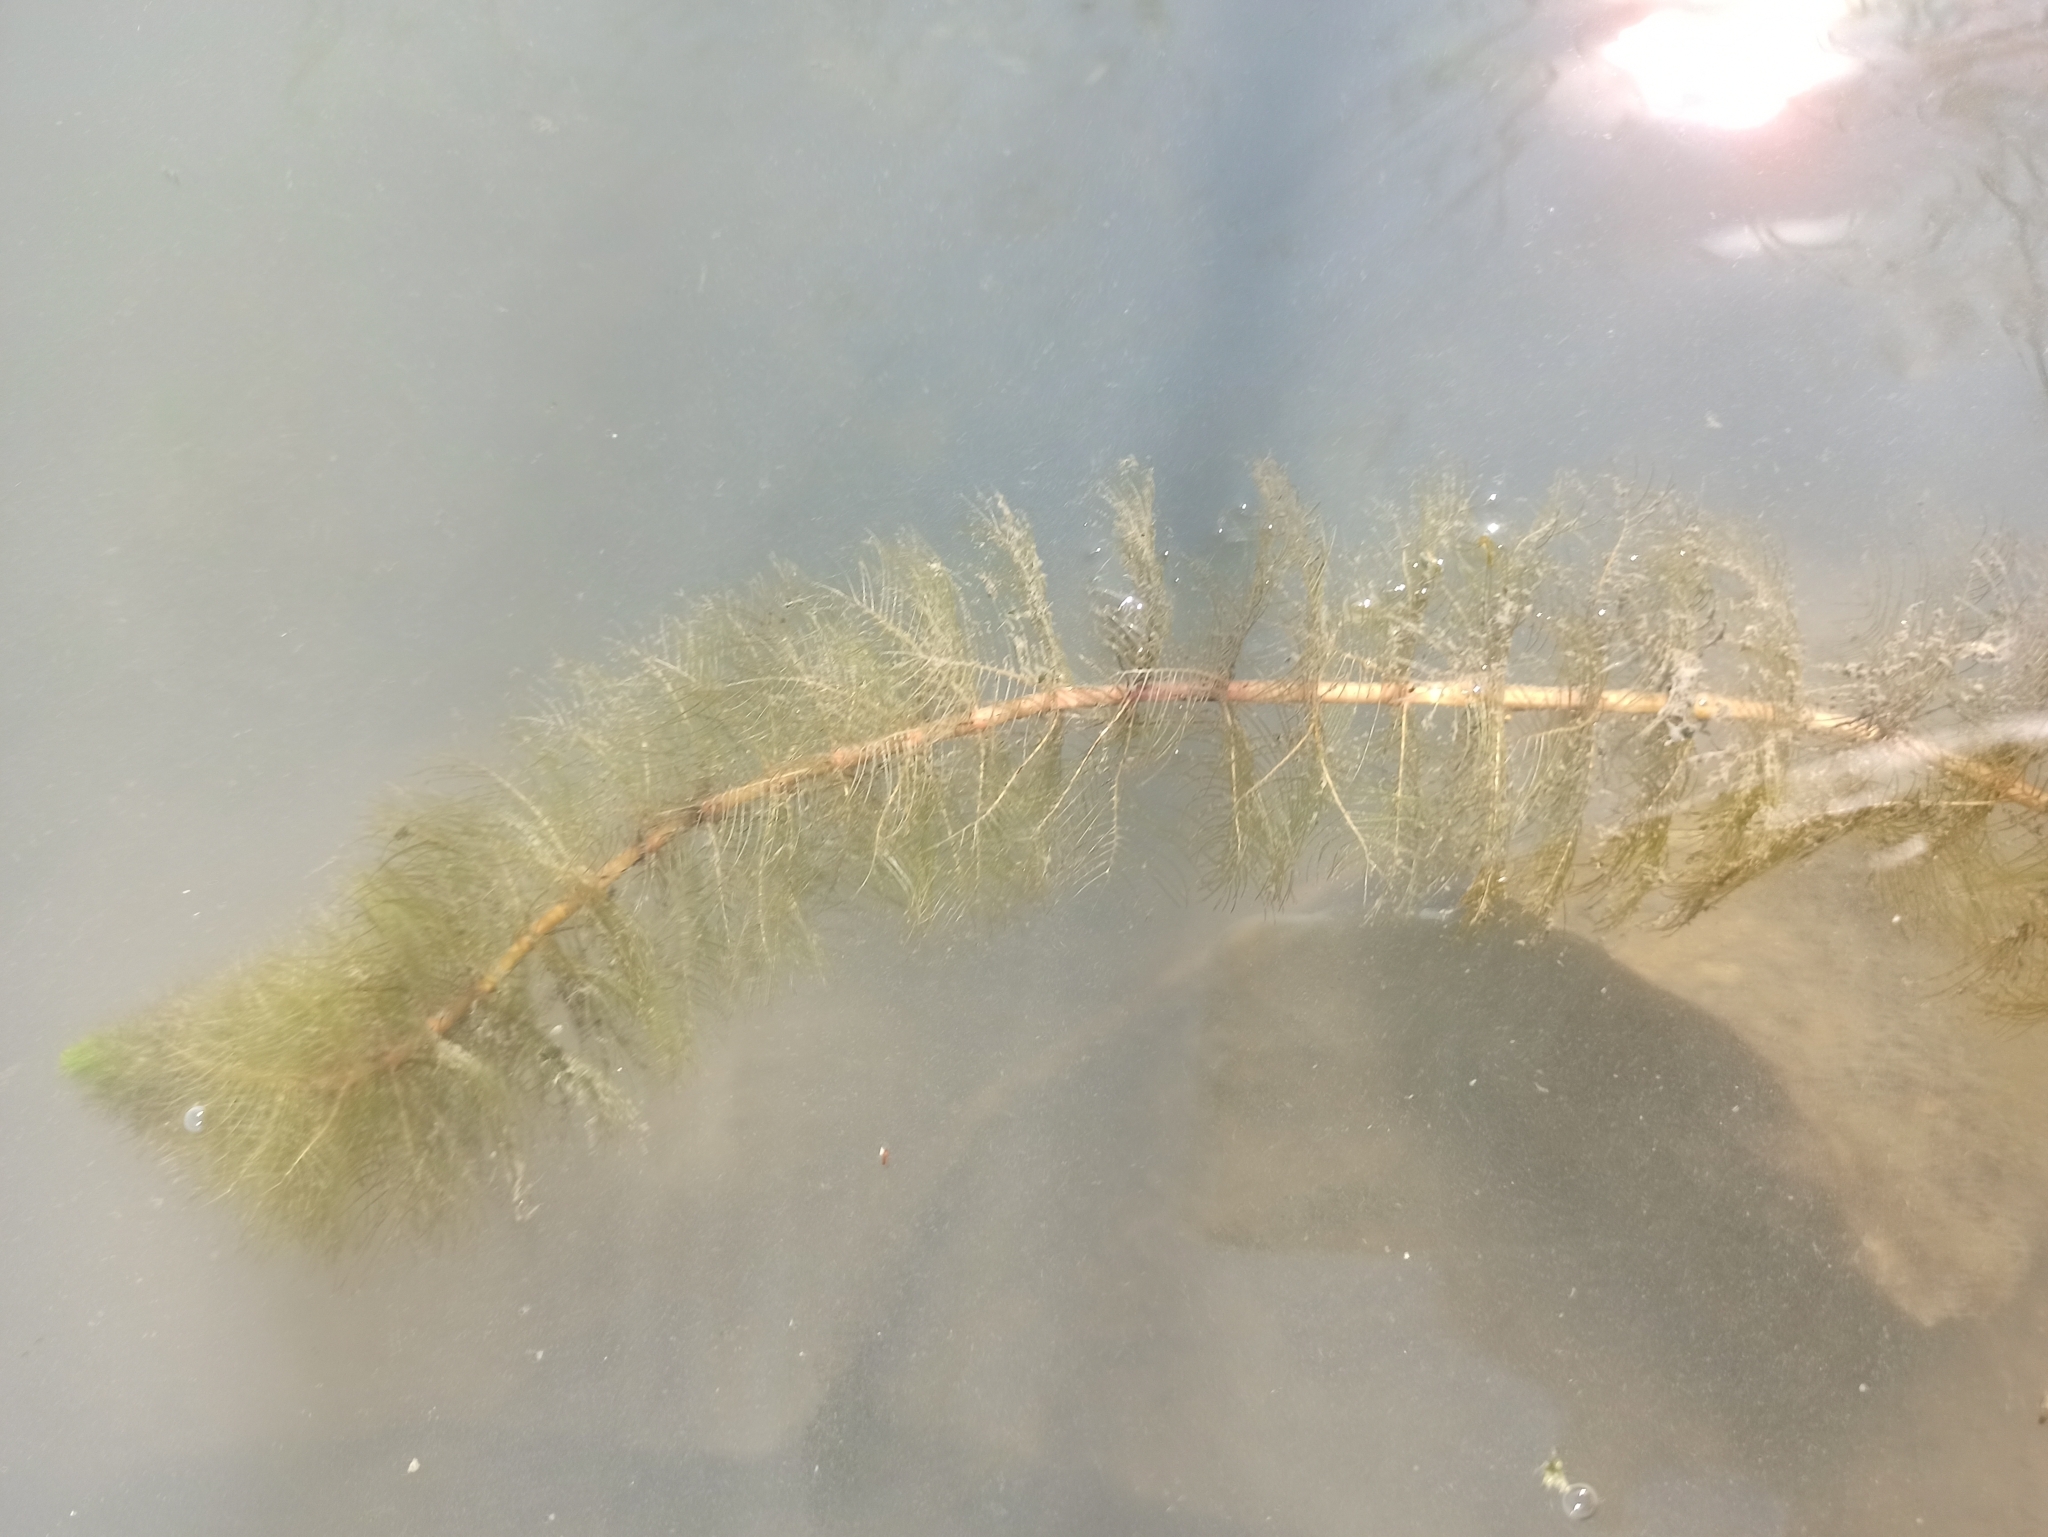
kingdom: Plantae
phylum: Tracheophyta
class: Magnoliopsida
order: Saxifragales
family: Haloragaceae
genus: Myriophyllum
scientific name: Myriophyllum spicatum
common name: Spiked water-milfoil
